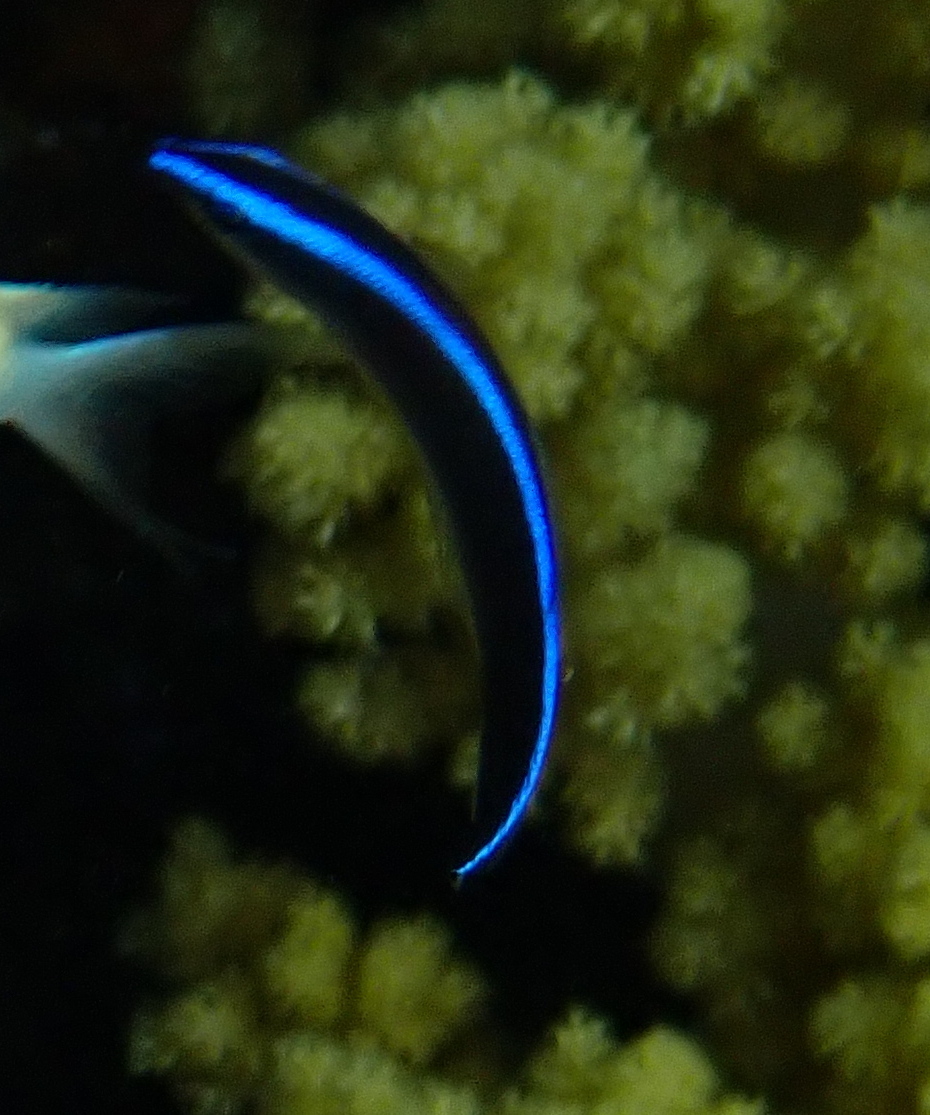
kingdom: Animalia
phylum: Chordata
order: Perciformes
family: Labridae
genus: Labroides
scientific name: Labroides dimidiatus
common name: Blue diesel wrasse
